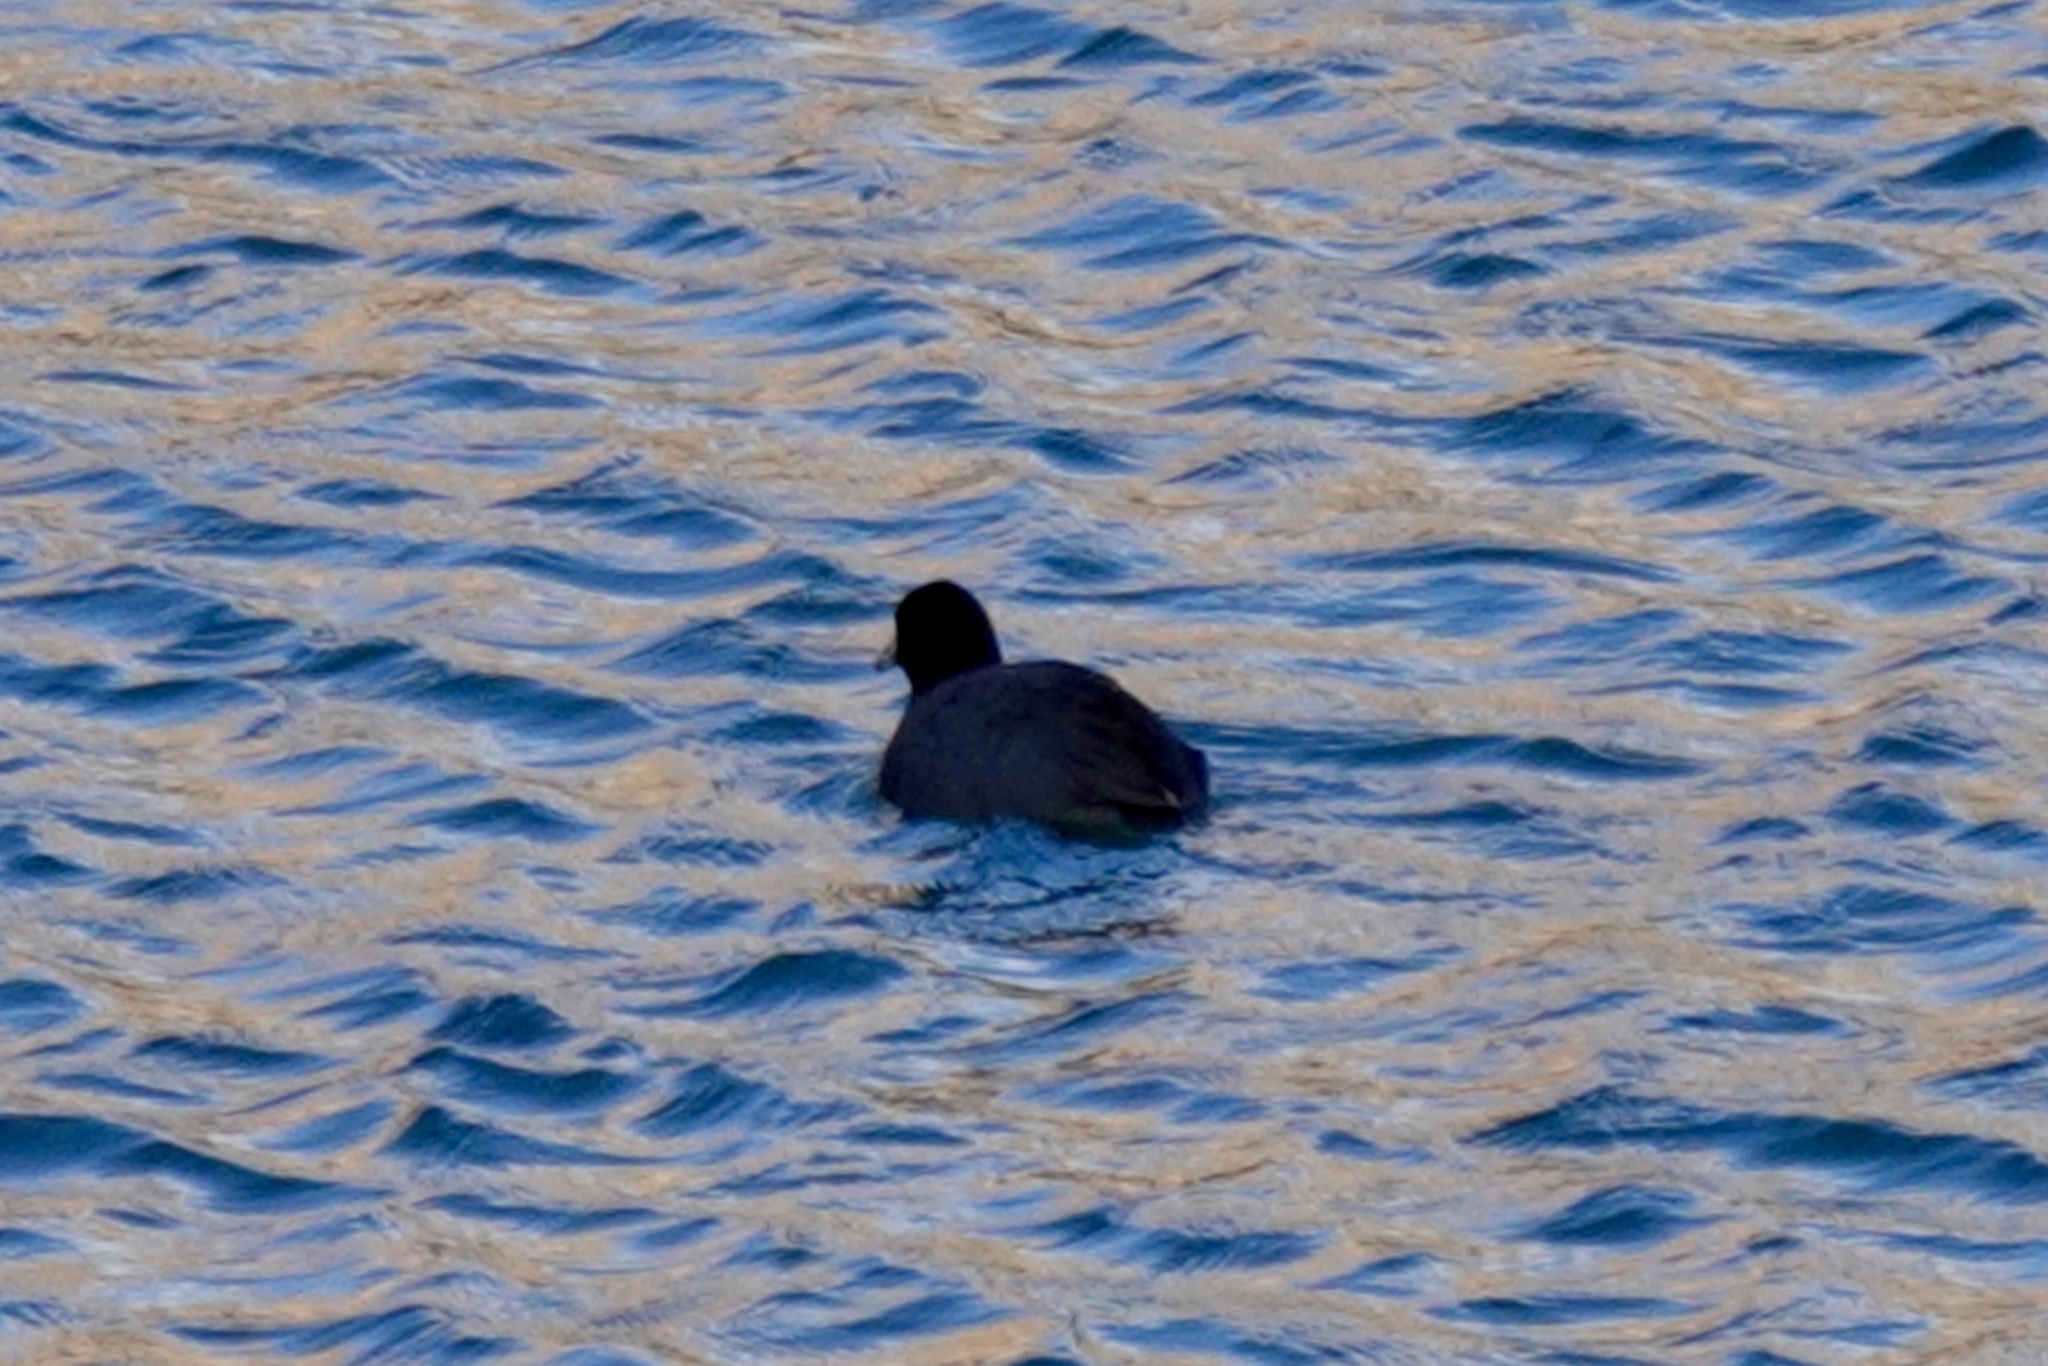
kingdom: Animalia
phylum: Chordata
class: Aves
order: Gruiformes
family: Rallidae
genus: Fulica
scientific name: Fulica americana
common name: American coot
